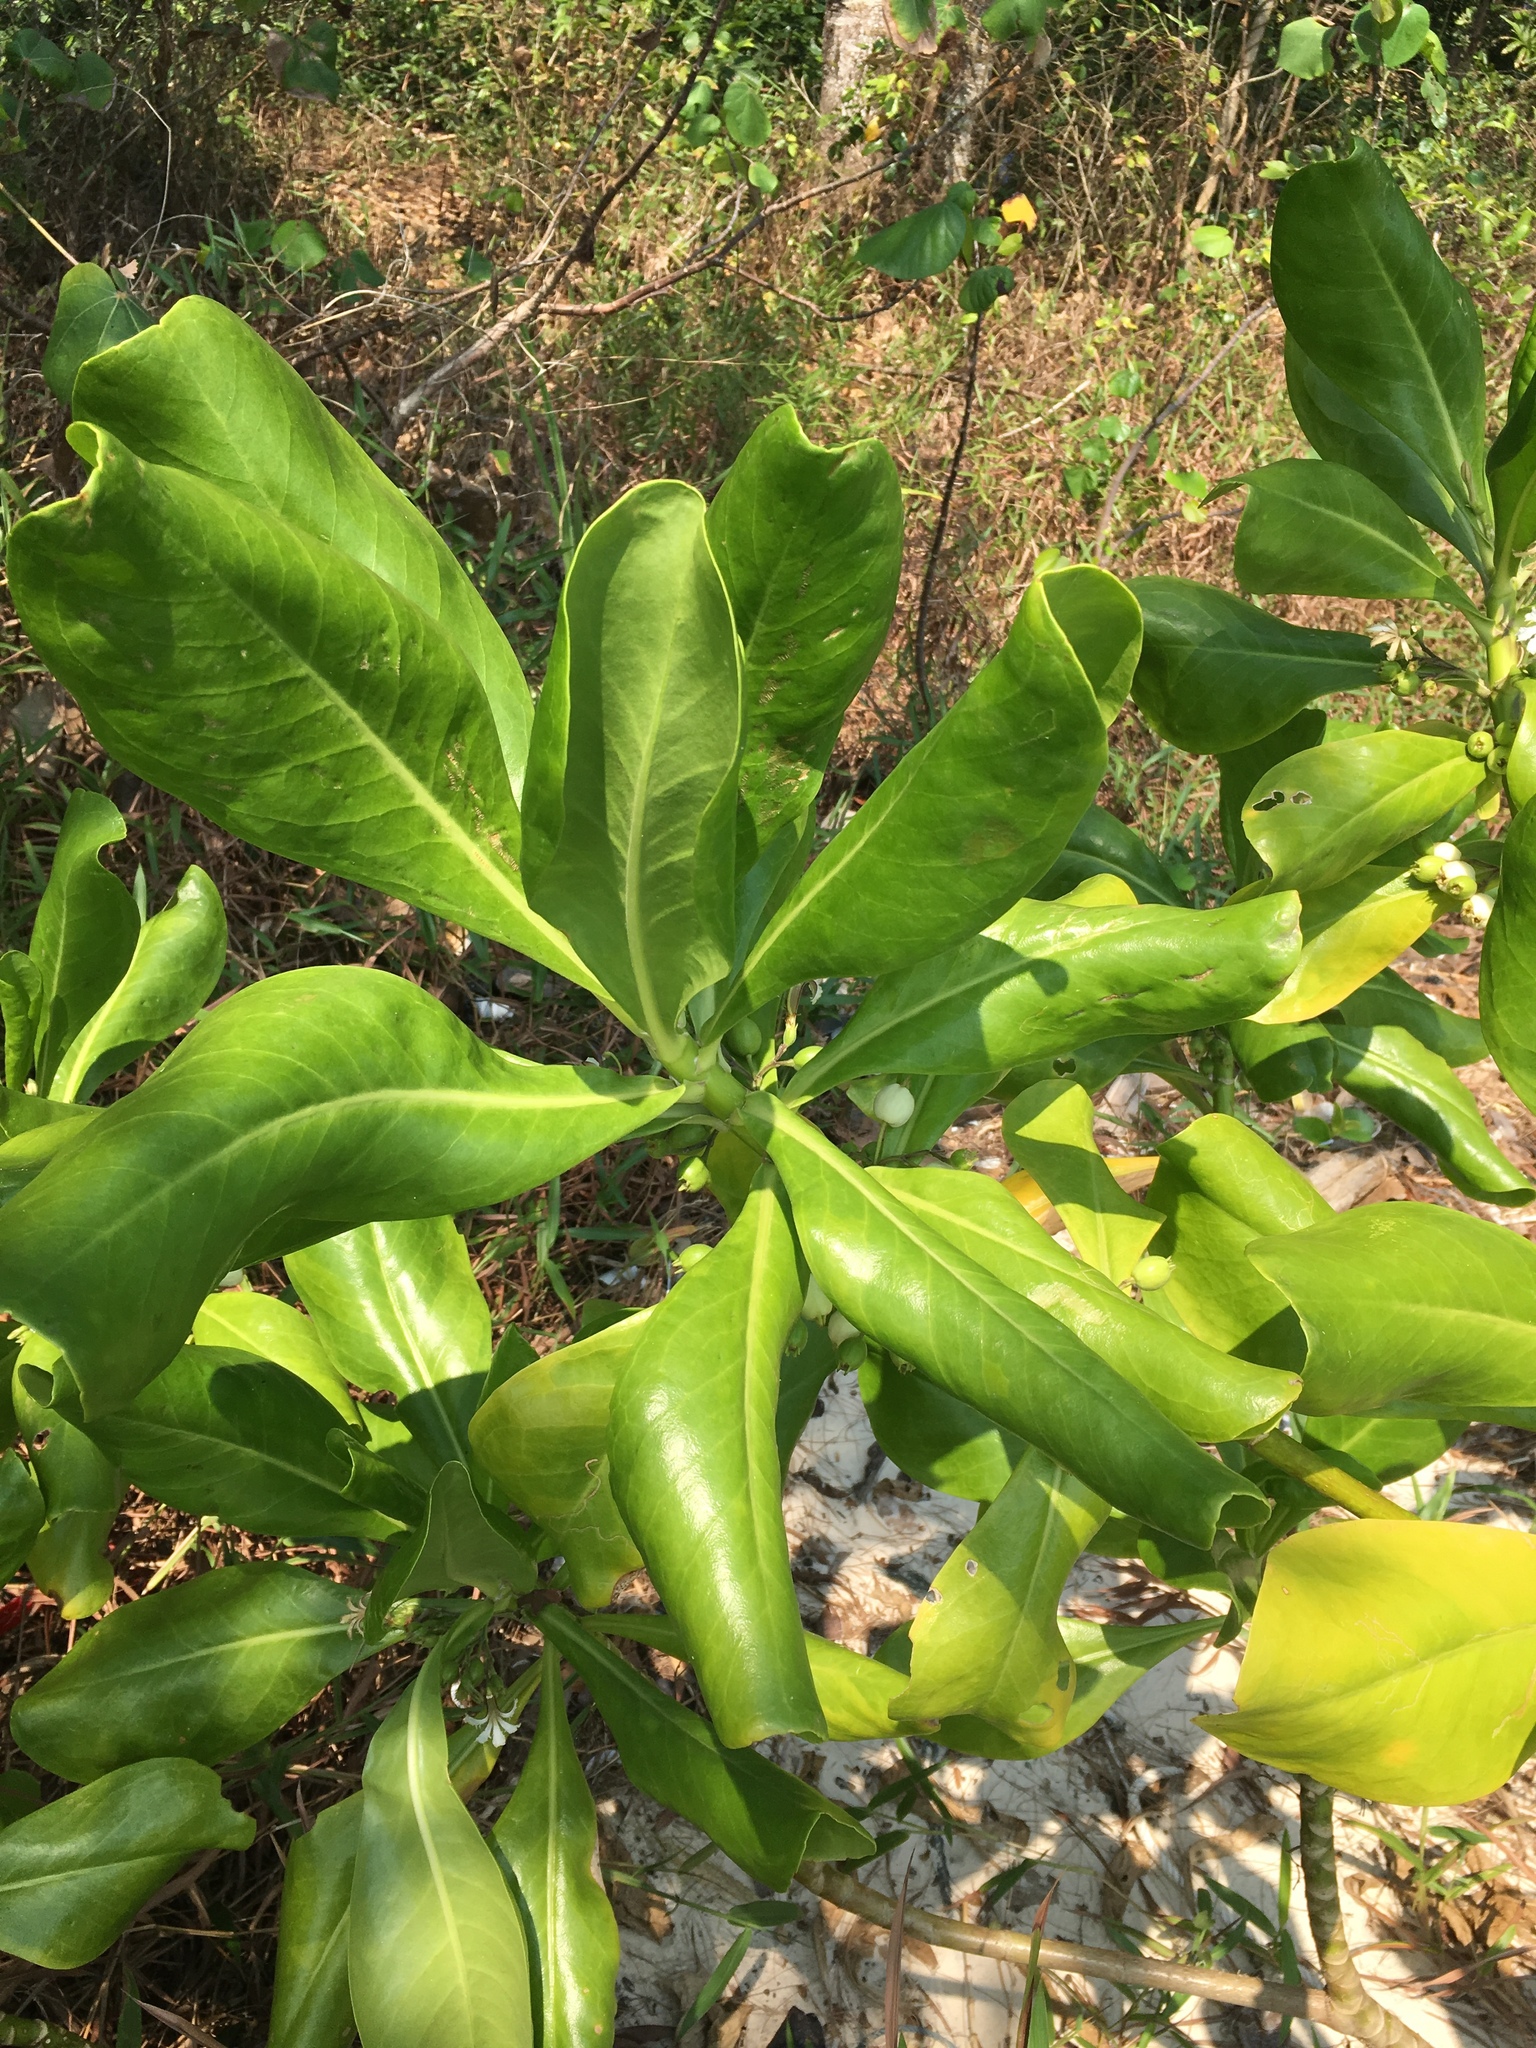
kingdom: Plantae
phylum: Tracheophyta
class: Magnoliopsida
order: Asterales
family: Goodeniaceae
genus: Scaevola
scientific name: Scaevola taccada
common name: Sea lettucetree
